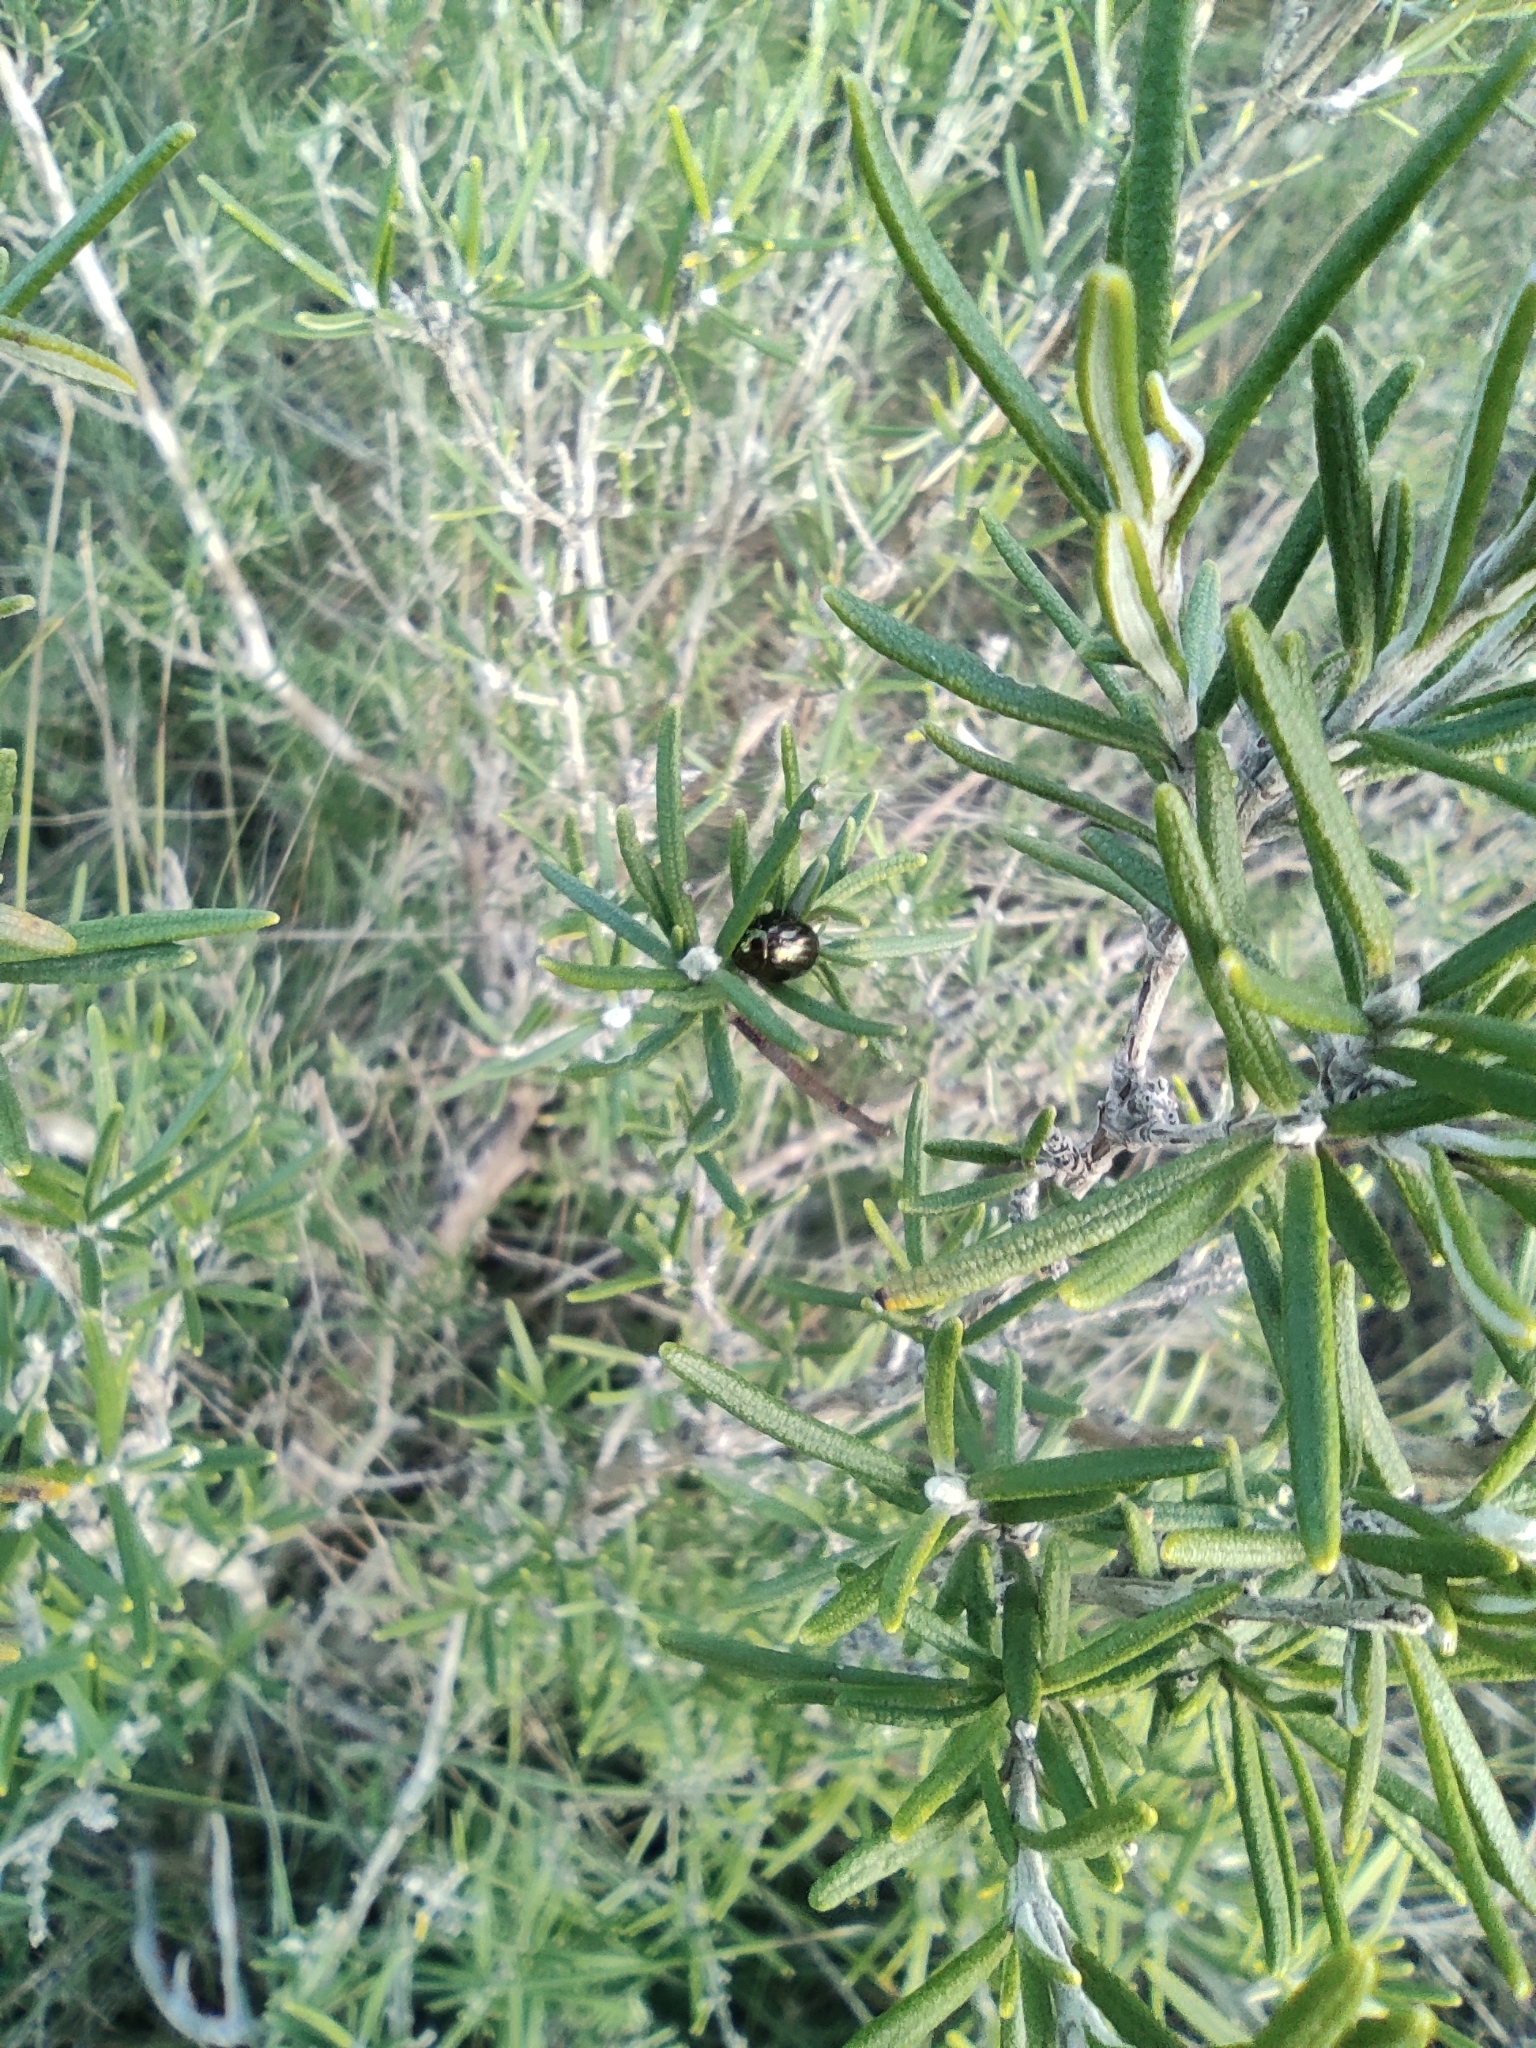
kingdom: Plantae
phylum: Tracheophyta
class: Magnoliopsida
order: Lamiales
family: Lamiaceae
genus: Salvia
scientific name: Salvia rosmarinus
